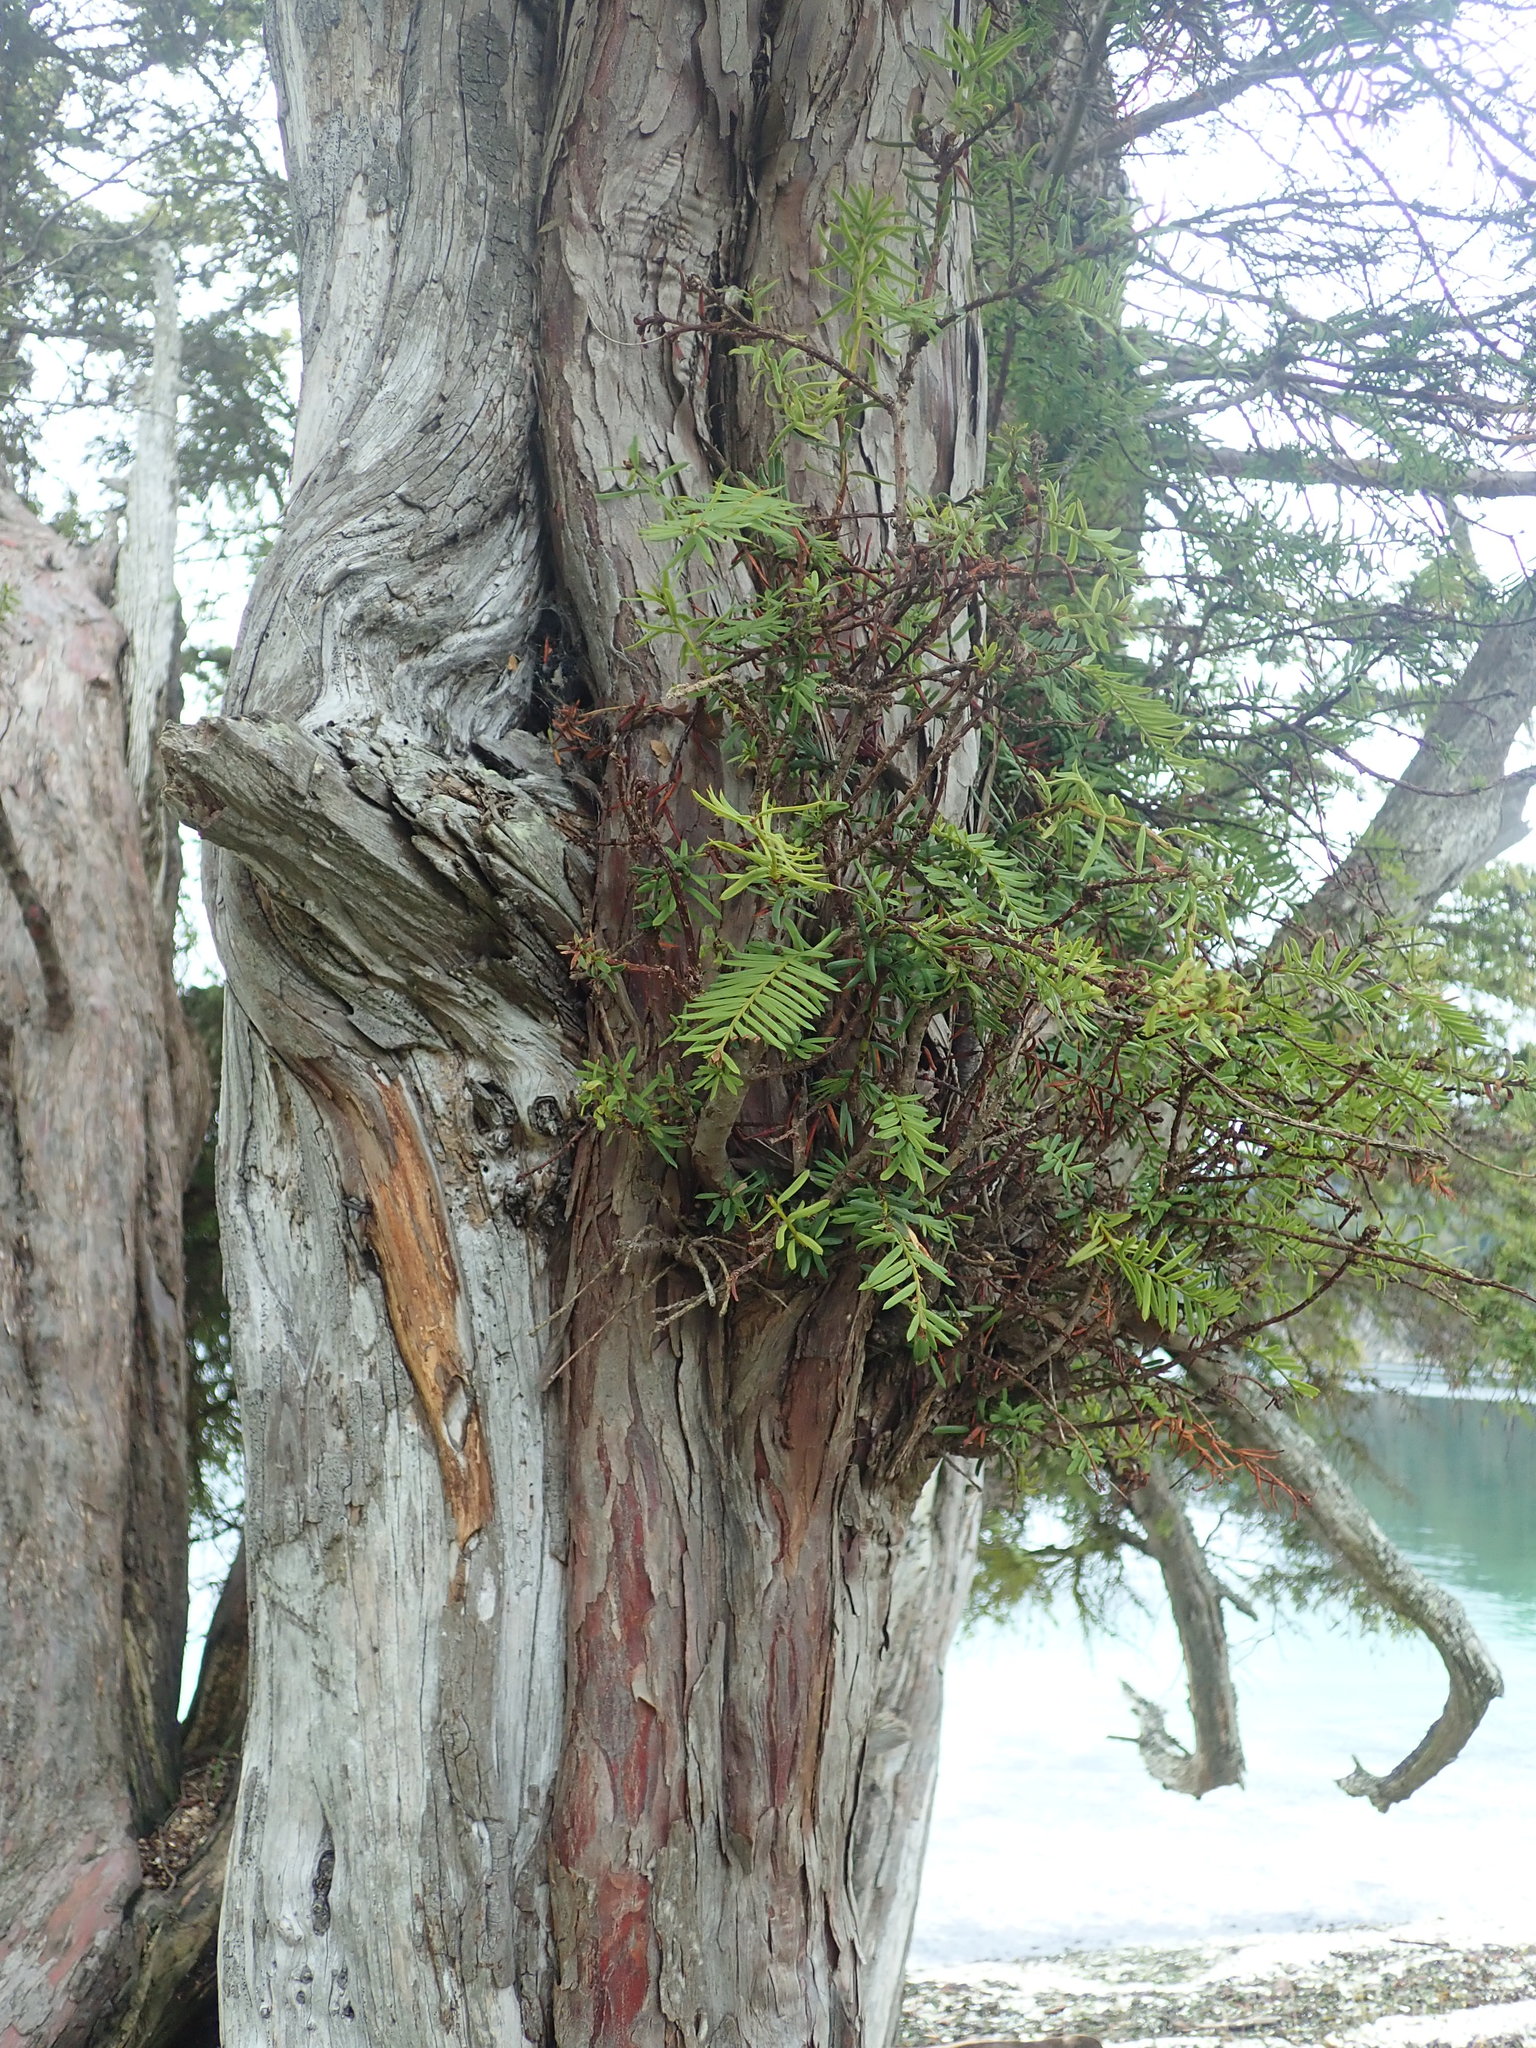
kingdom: Plantae
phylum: Tracheophyta
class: Pinopsida
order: Pinales
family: Taxaceae
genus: Taxus
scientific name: Taxus brevifolia
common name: Pacific yew
